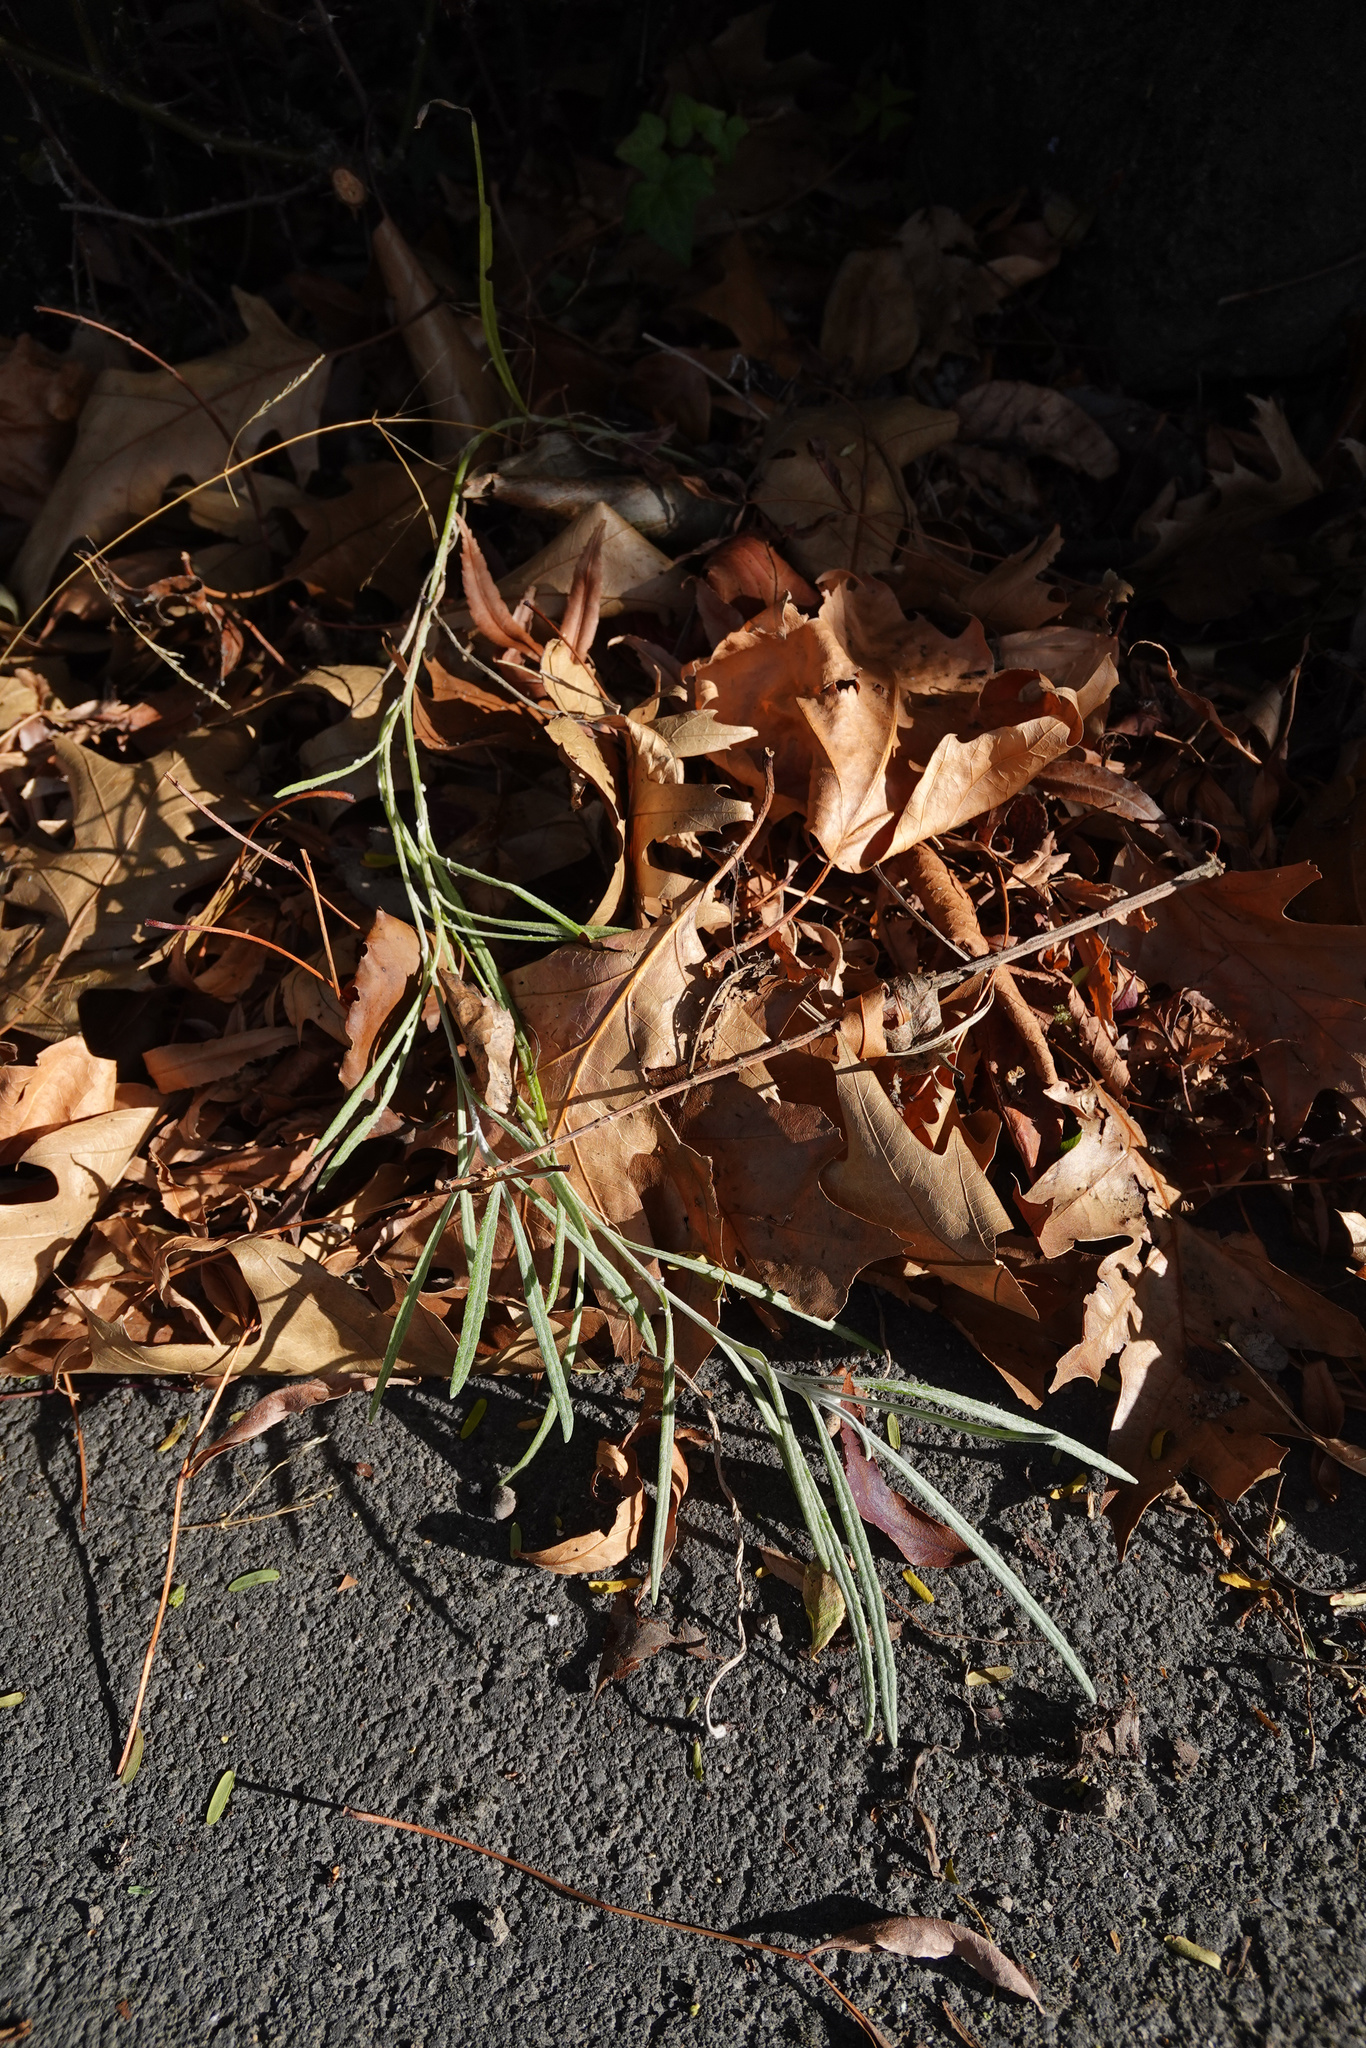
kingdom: Plantae
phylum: Tracheophyta
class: Magnoliopsida
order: Asterales
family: Asteraceae
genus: Senecio
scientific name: Senecio quadridentatus
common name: Cotton fireweed
